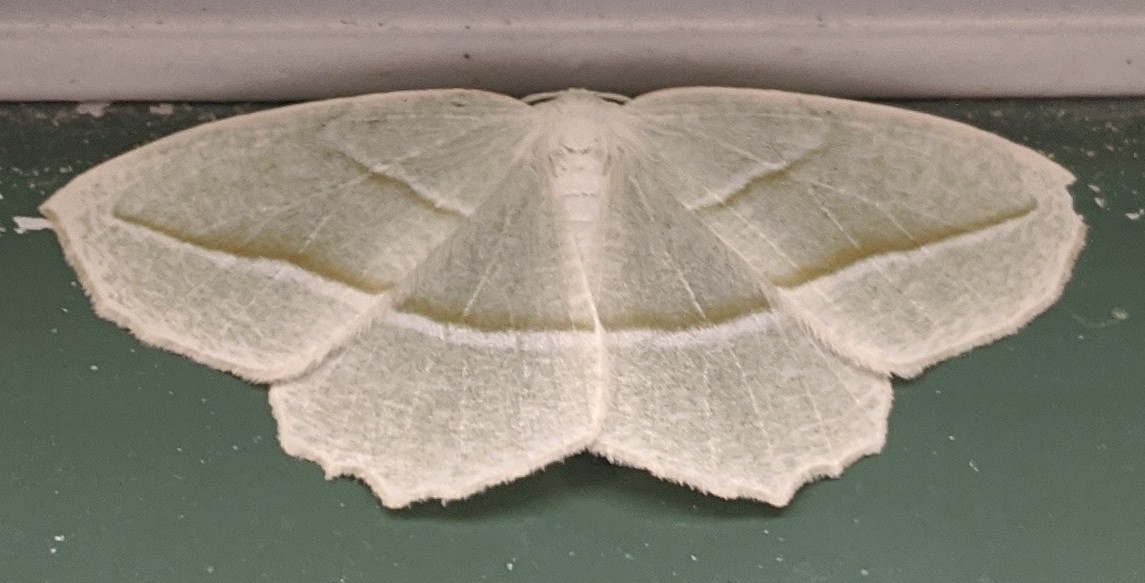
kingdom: Animalia
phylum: Arthropoda
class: Insecta
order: Lepidoptera
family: Geometridae
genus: Campaea
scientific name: Campaea perlata
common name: Fringed looper
